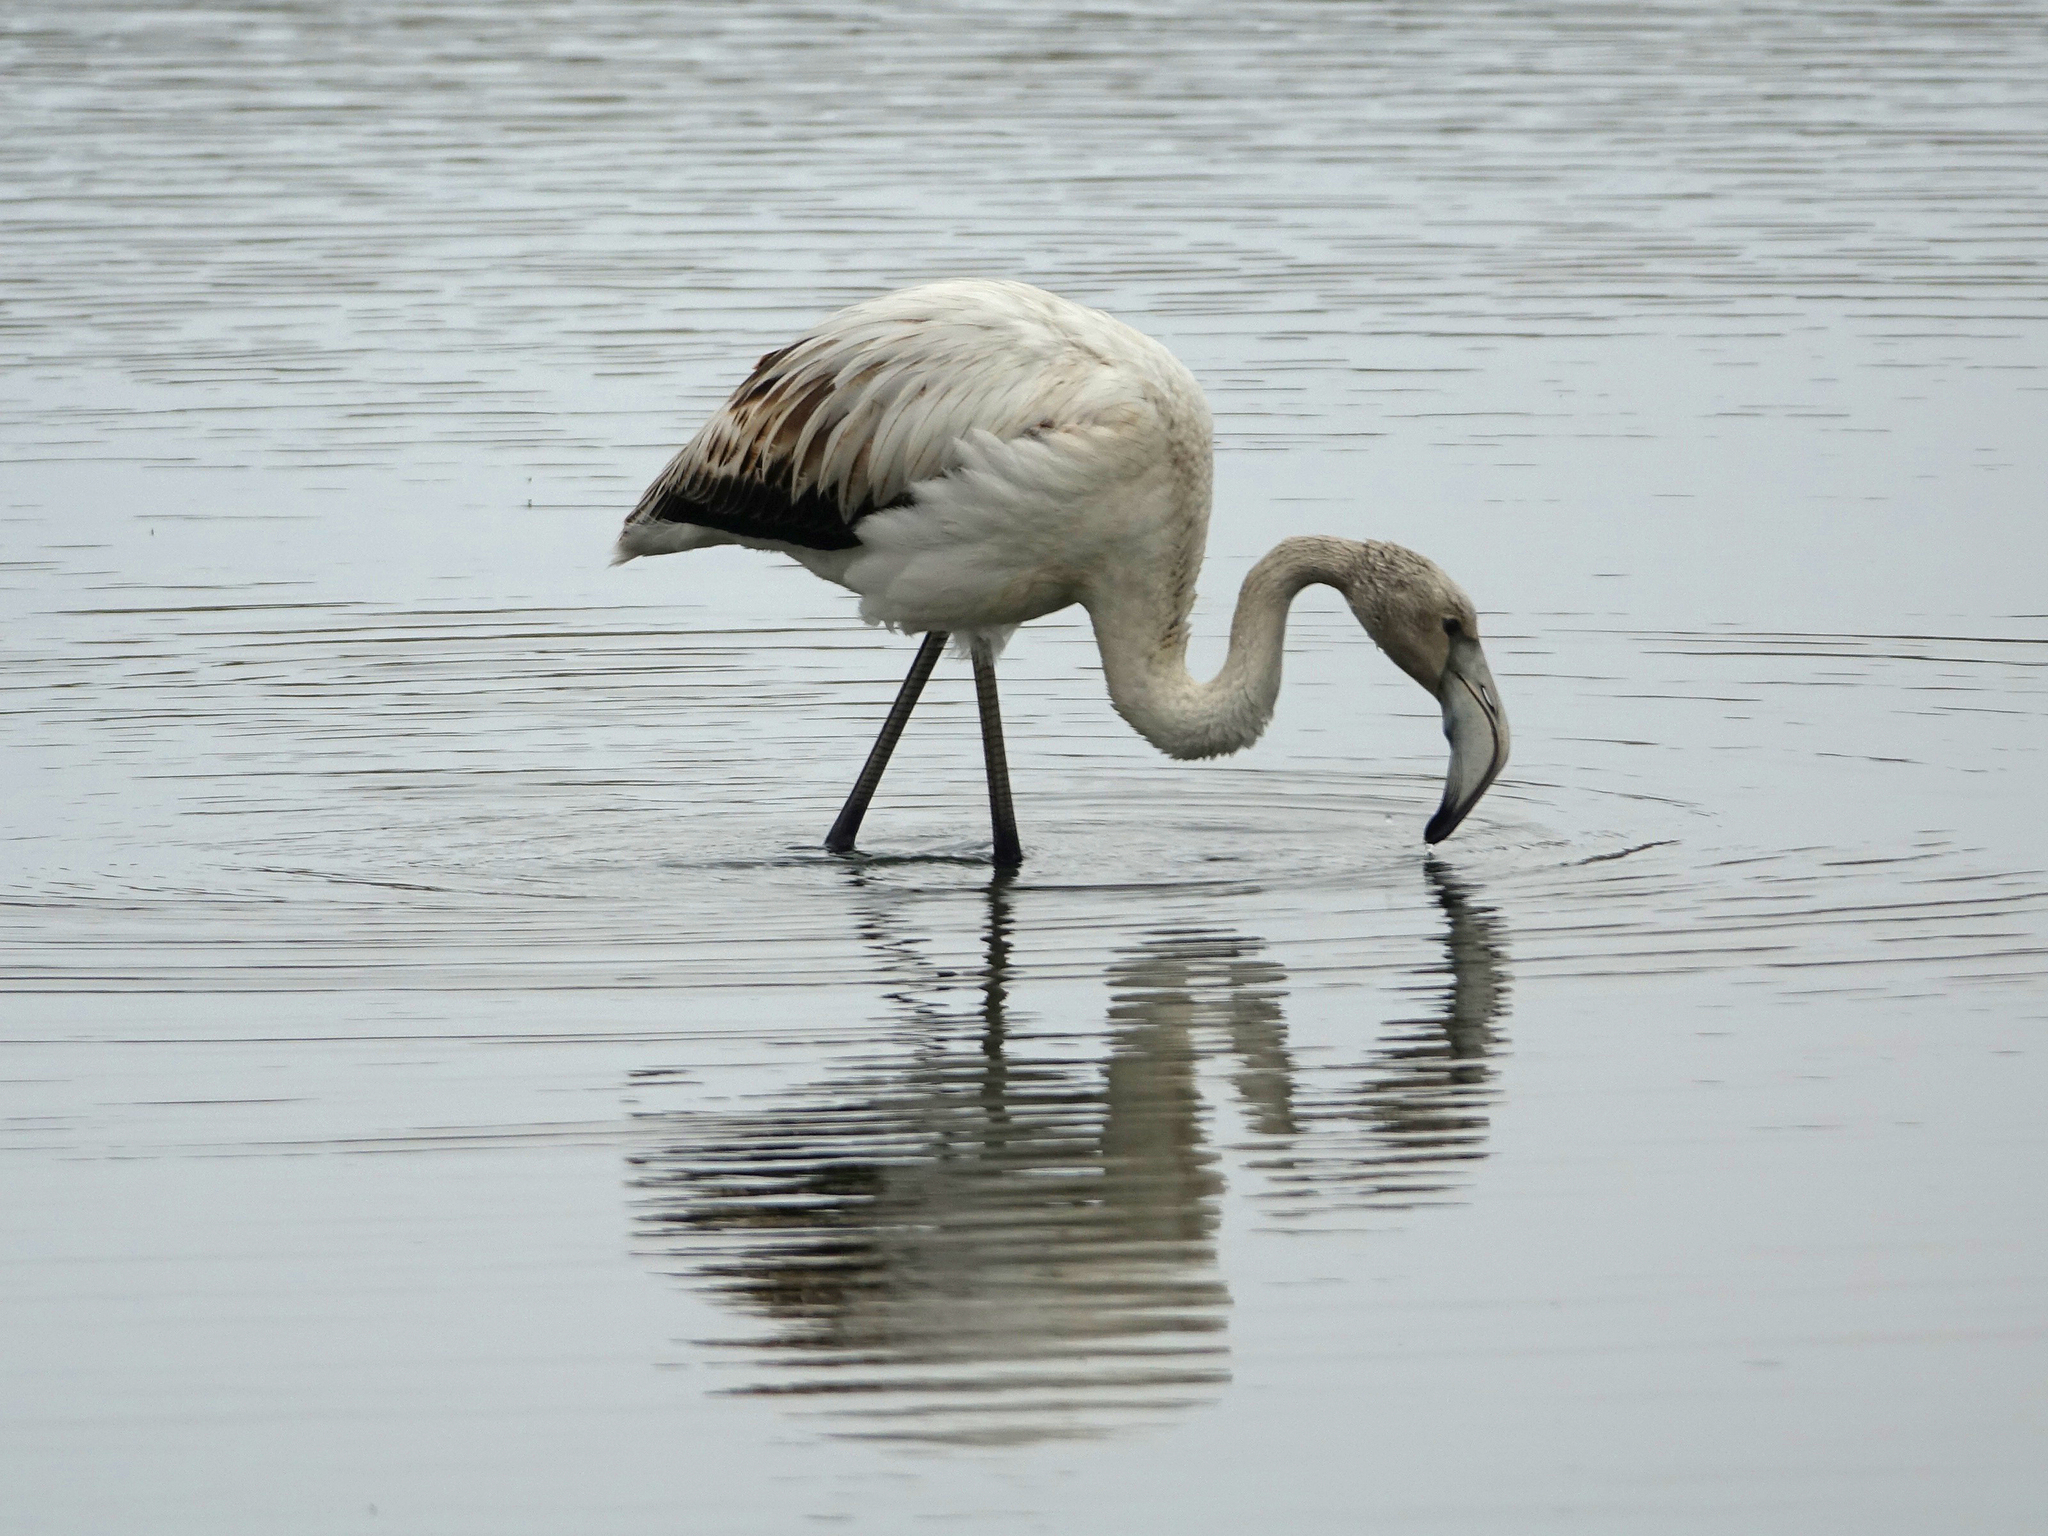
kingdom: Animalia
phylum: Chordata
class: Aves
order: Phoenicopteriformes
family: Phoenicopteridae
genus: Phoenicopterus
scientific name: Phoenicopterus roseus
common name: Greater flamingo
